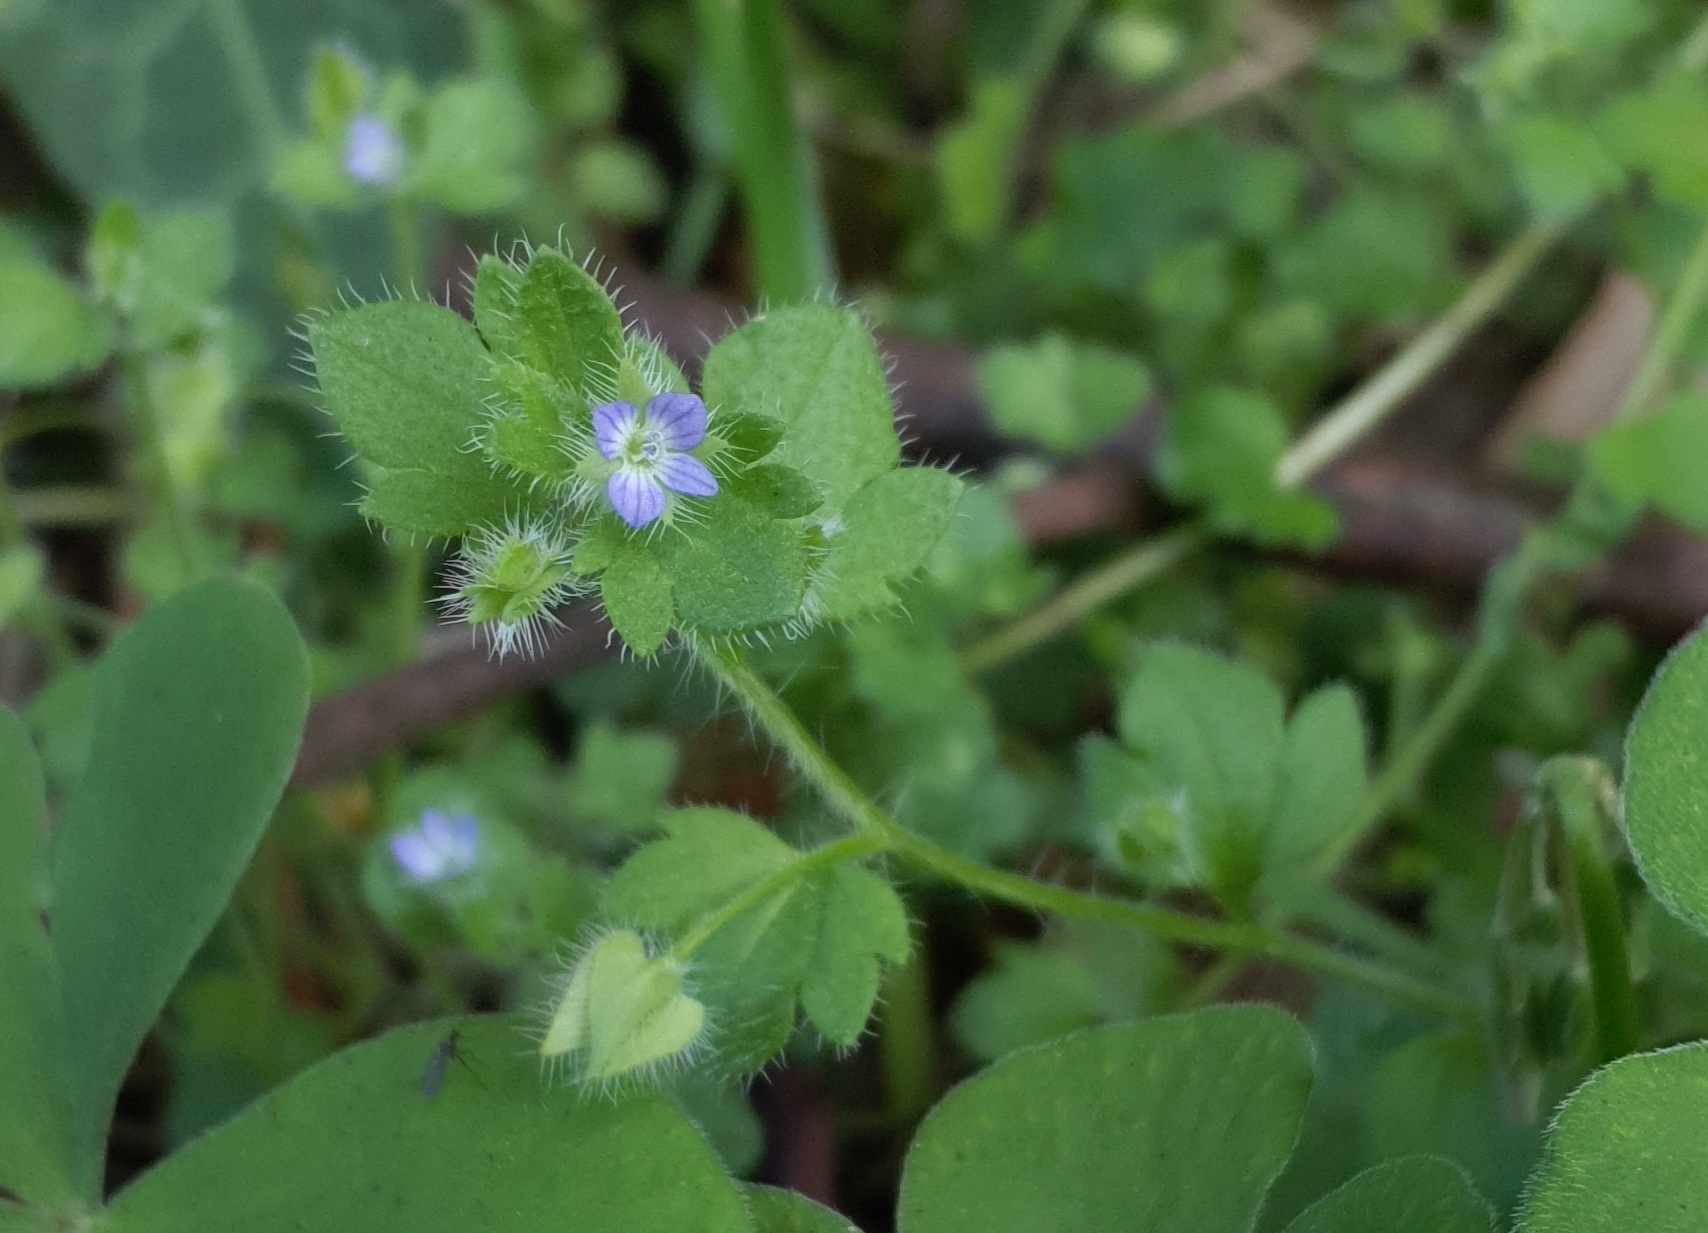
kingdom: Plantae
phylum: Tracheophyta
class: Magnoliopsida
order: Lamiales
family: Plantaginaceae
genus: Veronica
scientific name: Veronica hederifolia
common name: Ivy-leaved speedwell
